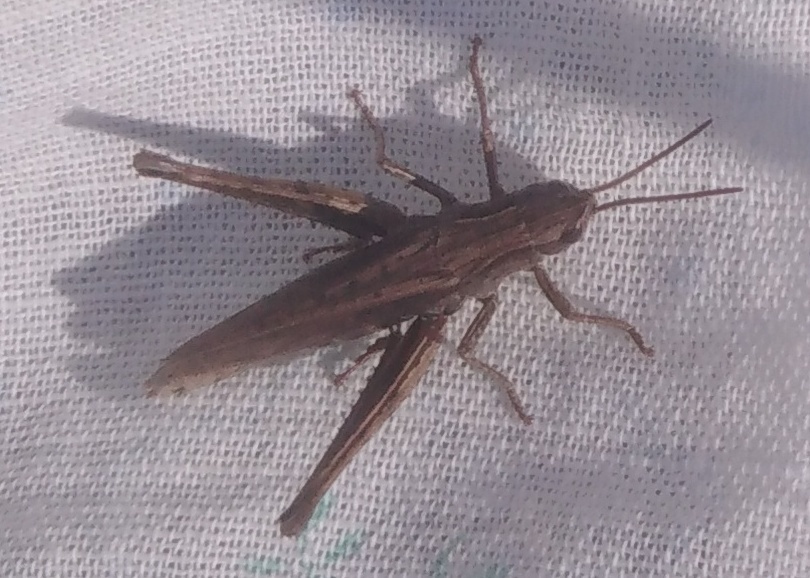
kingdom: Animalia
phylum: Arthropoda
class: Insecta
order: Orthoptera
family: Acrididae
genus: Chorthippus
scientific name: Chorthippus dorsatus
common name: Steppe grasshopper
